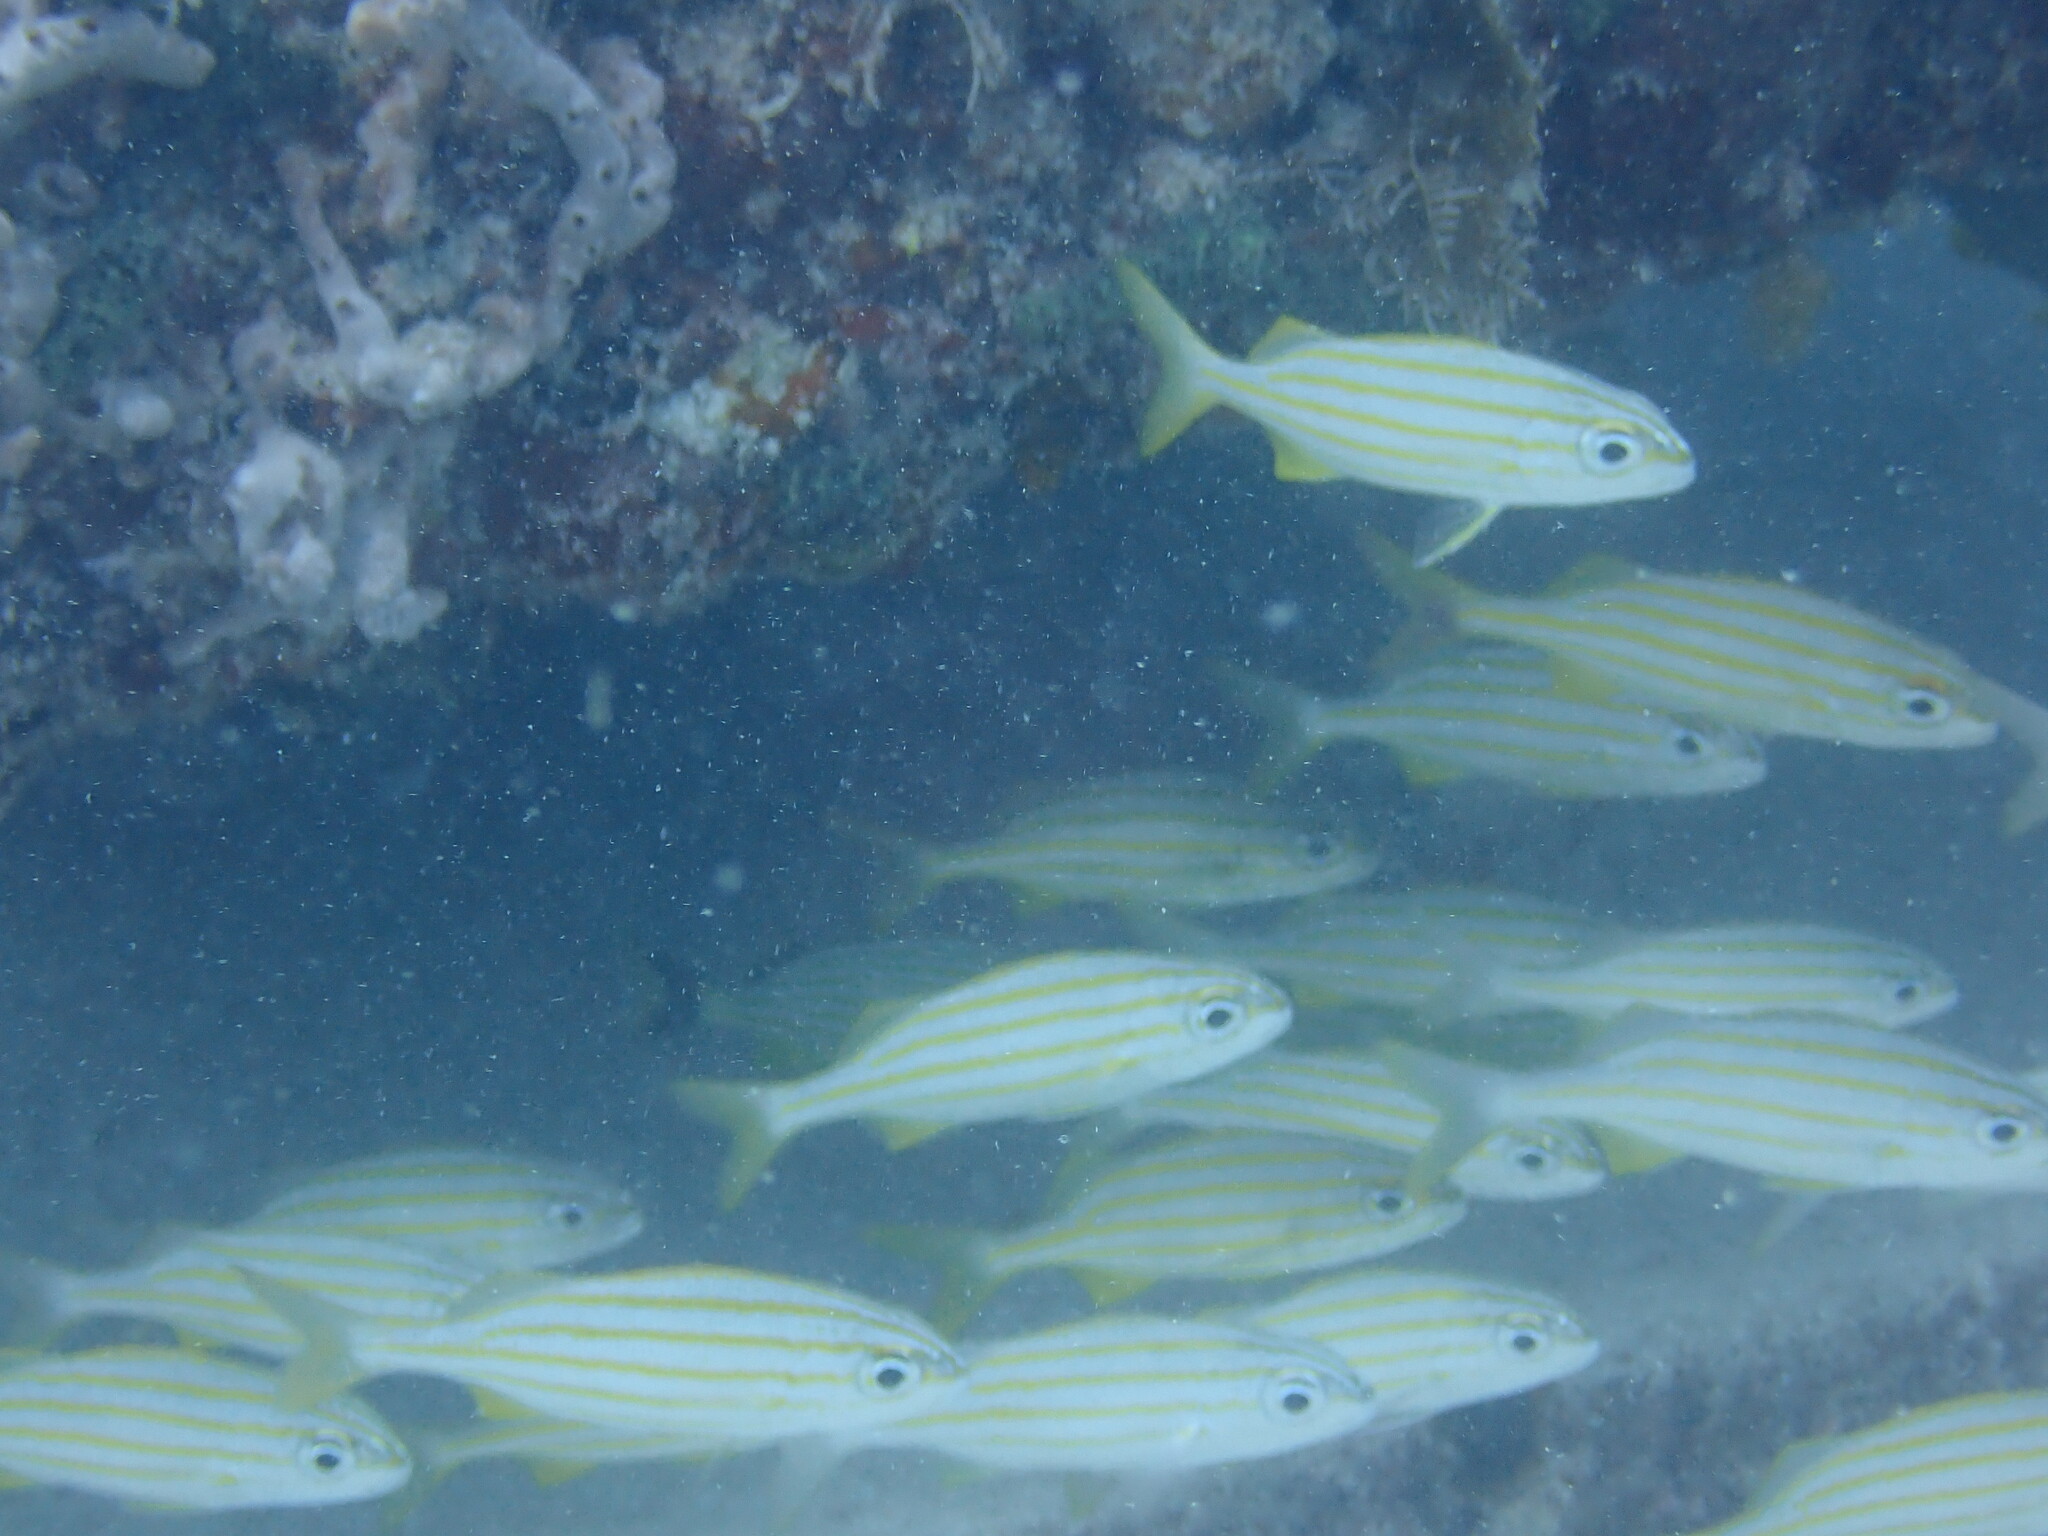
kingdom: Animalia
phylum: Chordata
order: Perciformes
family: Haemulidae
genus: Haemulon
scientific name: Haemulon chrysargyreum
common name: Smallmouth grunt
